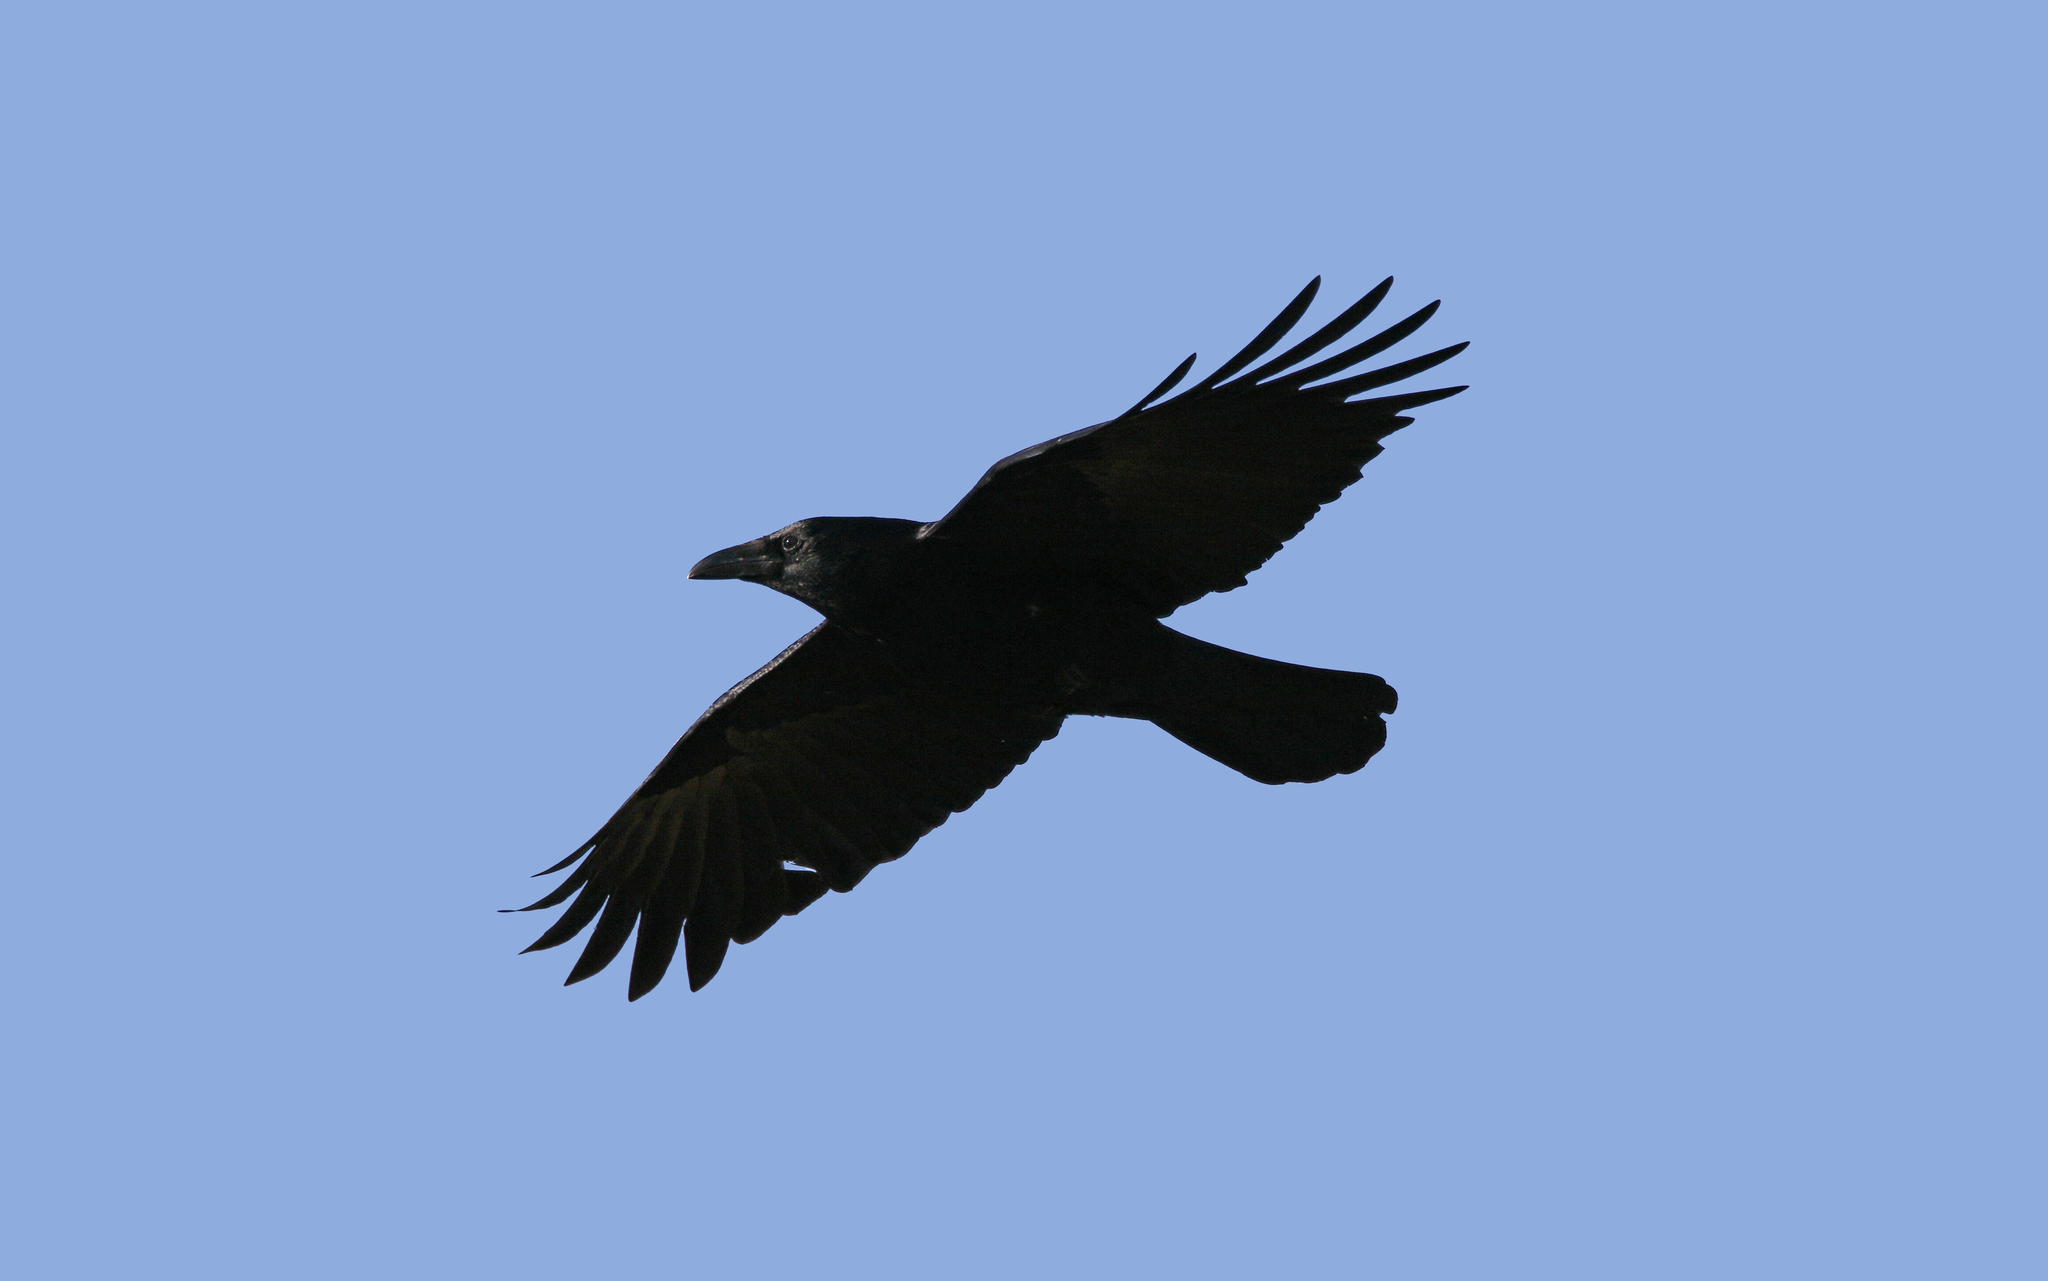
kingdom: Animalia
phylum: Chordata
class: Aves
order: Passeriformes
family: Corvidae
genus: Corvus
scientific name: Corvus frugilegus
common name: Rook
